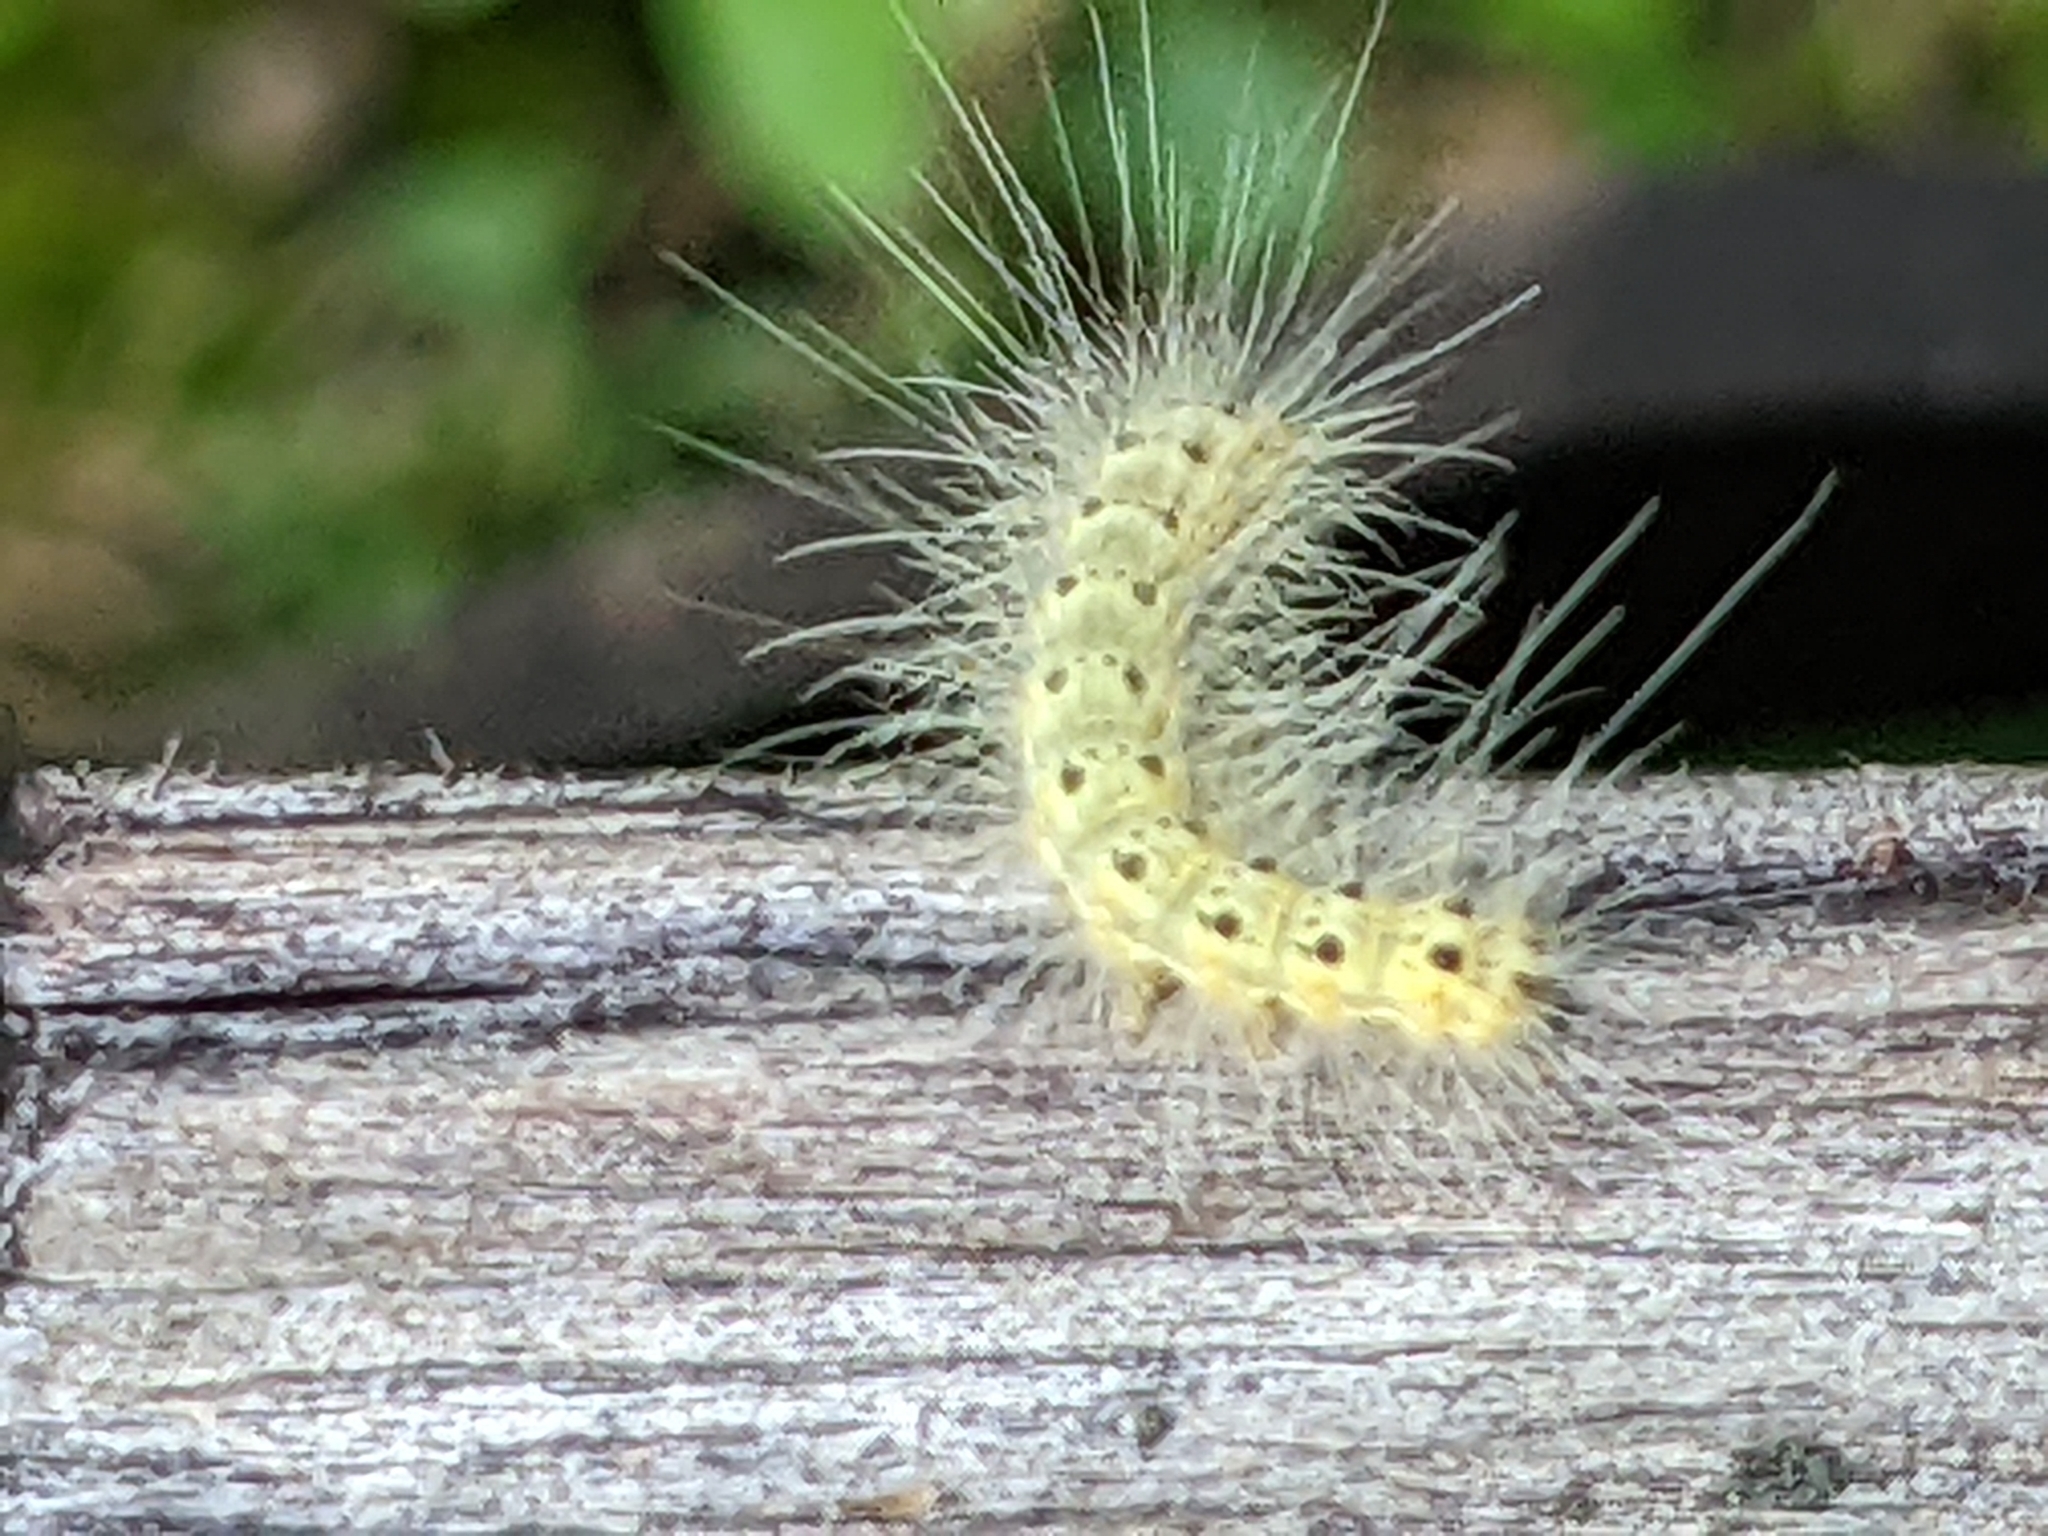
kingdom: Animalia
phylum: Arthropoda
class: Insecta
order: Lepidoptera
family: Erebidae
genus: Hyphantria
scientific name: Hyphantria cunea
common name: American white moth
